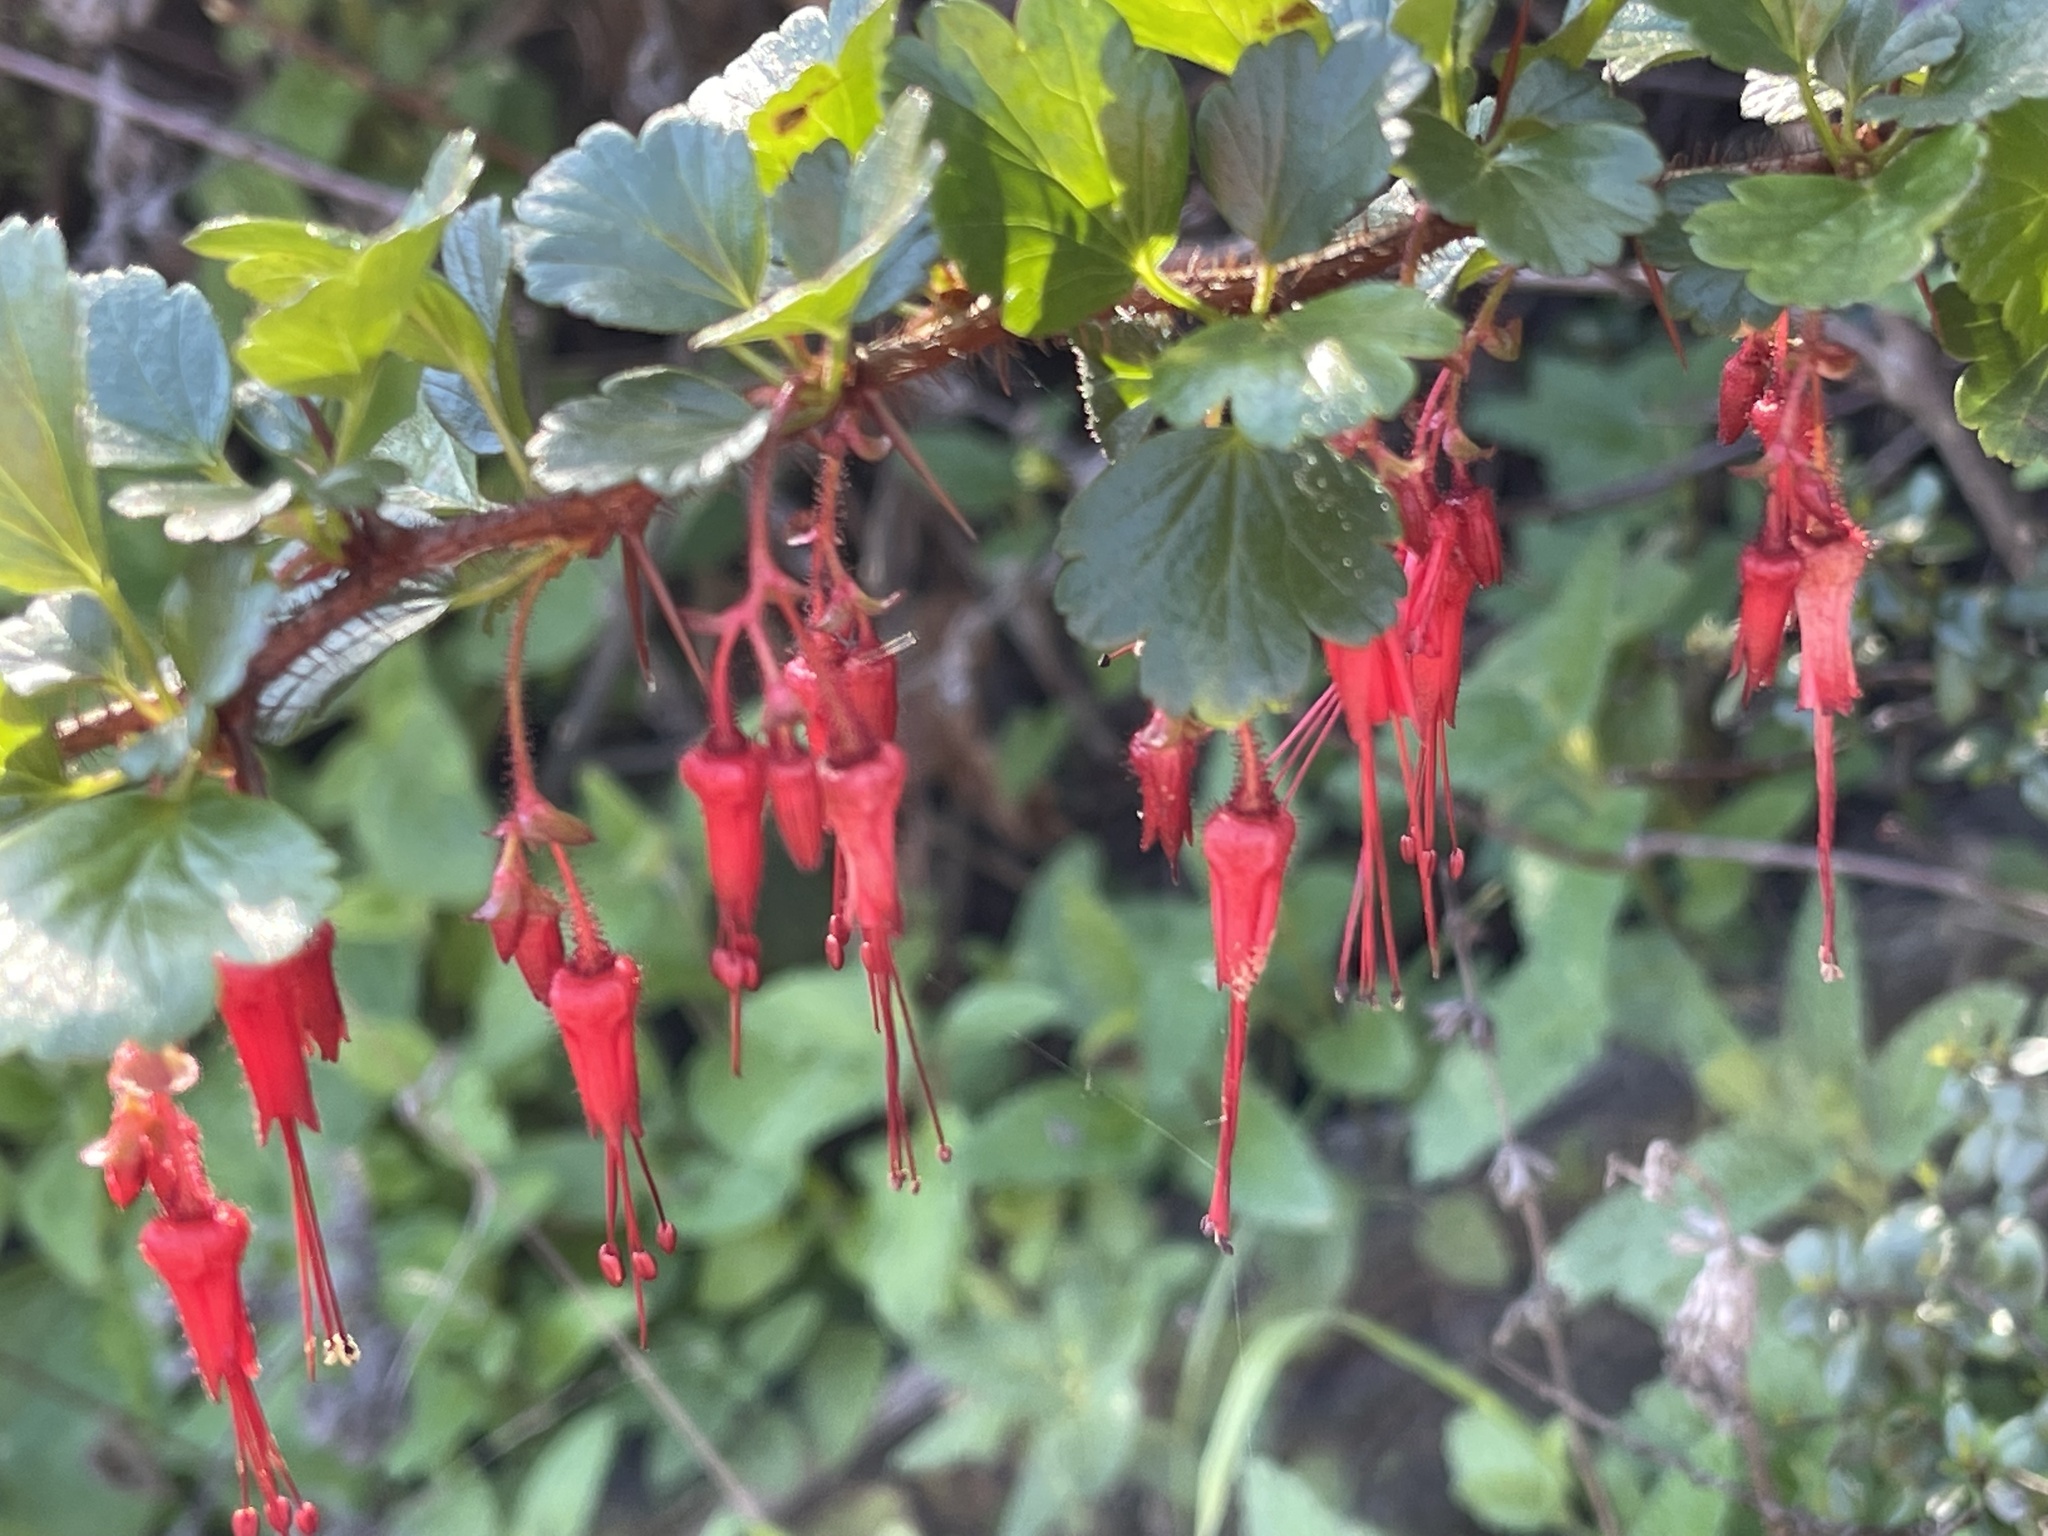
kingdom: Plantae
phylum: Tracheophyta
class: Magnoliopsida
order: Saxifragales
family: Grossulariaceae
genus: Ribes
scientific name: Ribes speciosum
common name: Fuchsia-flower gooseberry
